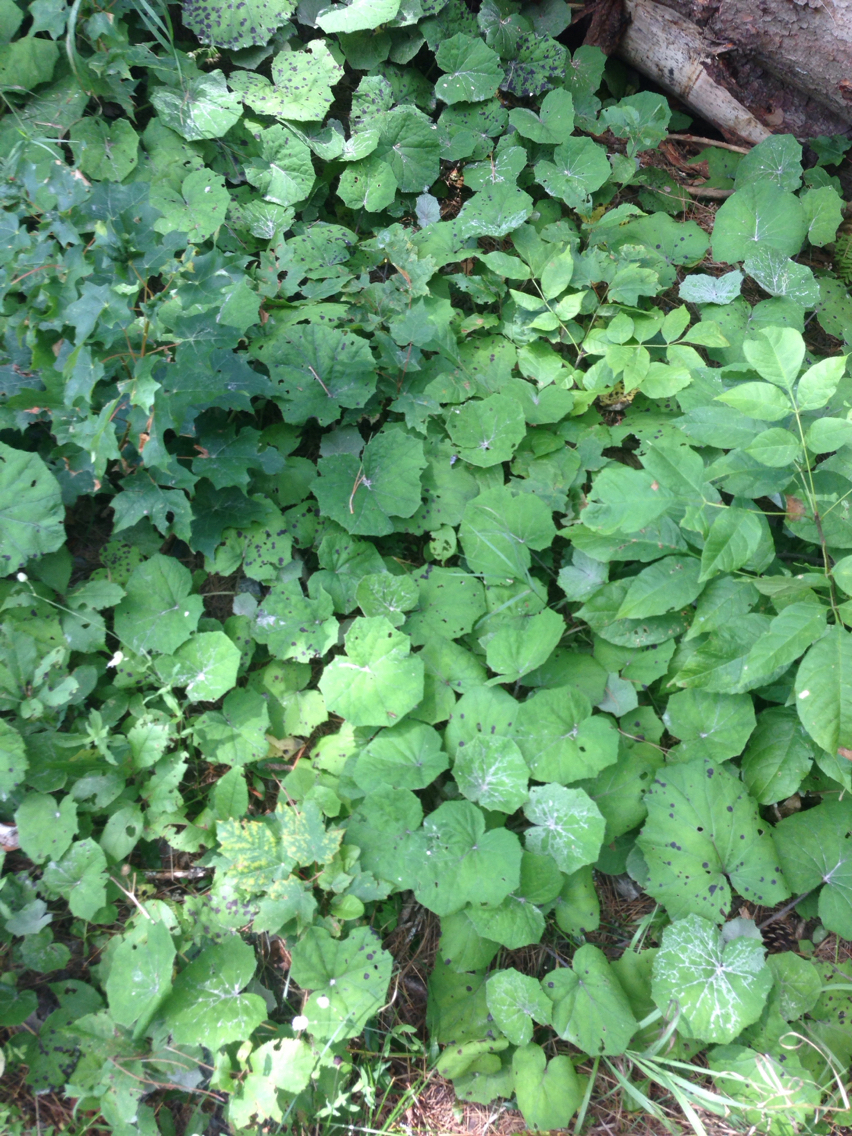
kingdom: Plantae
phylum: Tracheophyta
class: Magnoliopsida
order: Asterales
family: Asteraceae
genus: Tussilago
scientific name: Tussilago farfara
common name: Coltsfoot
